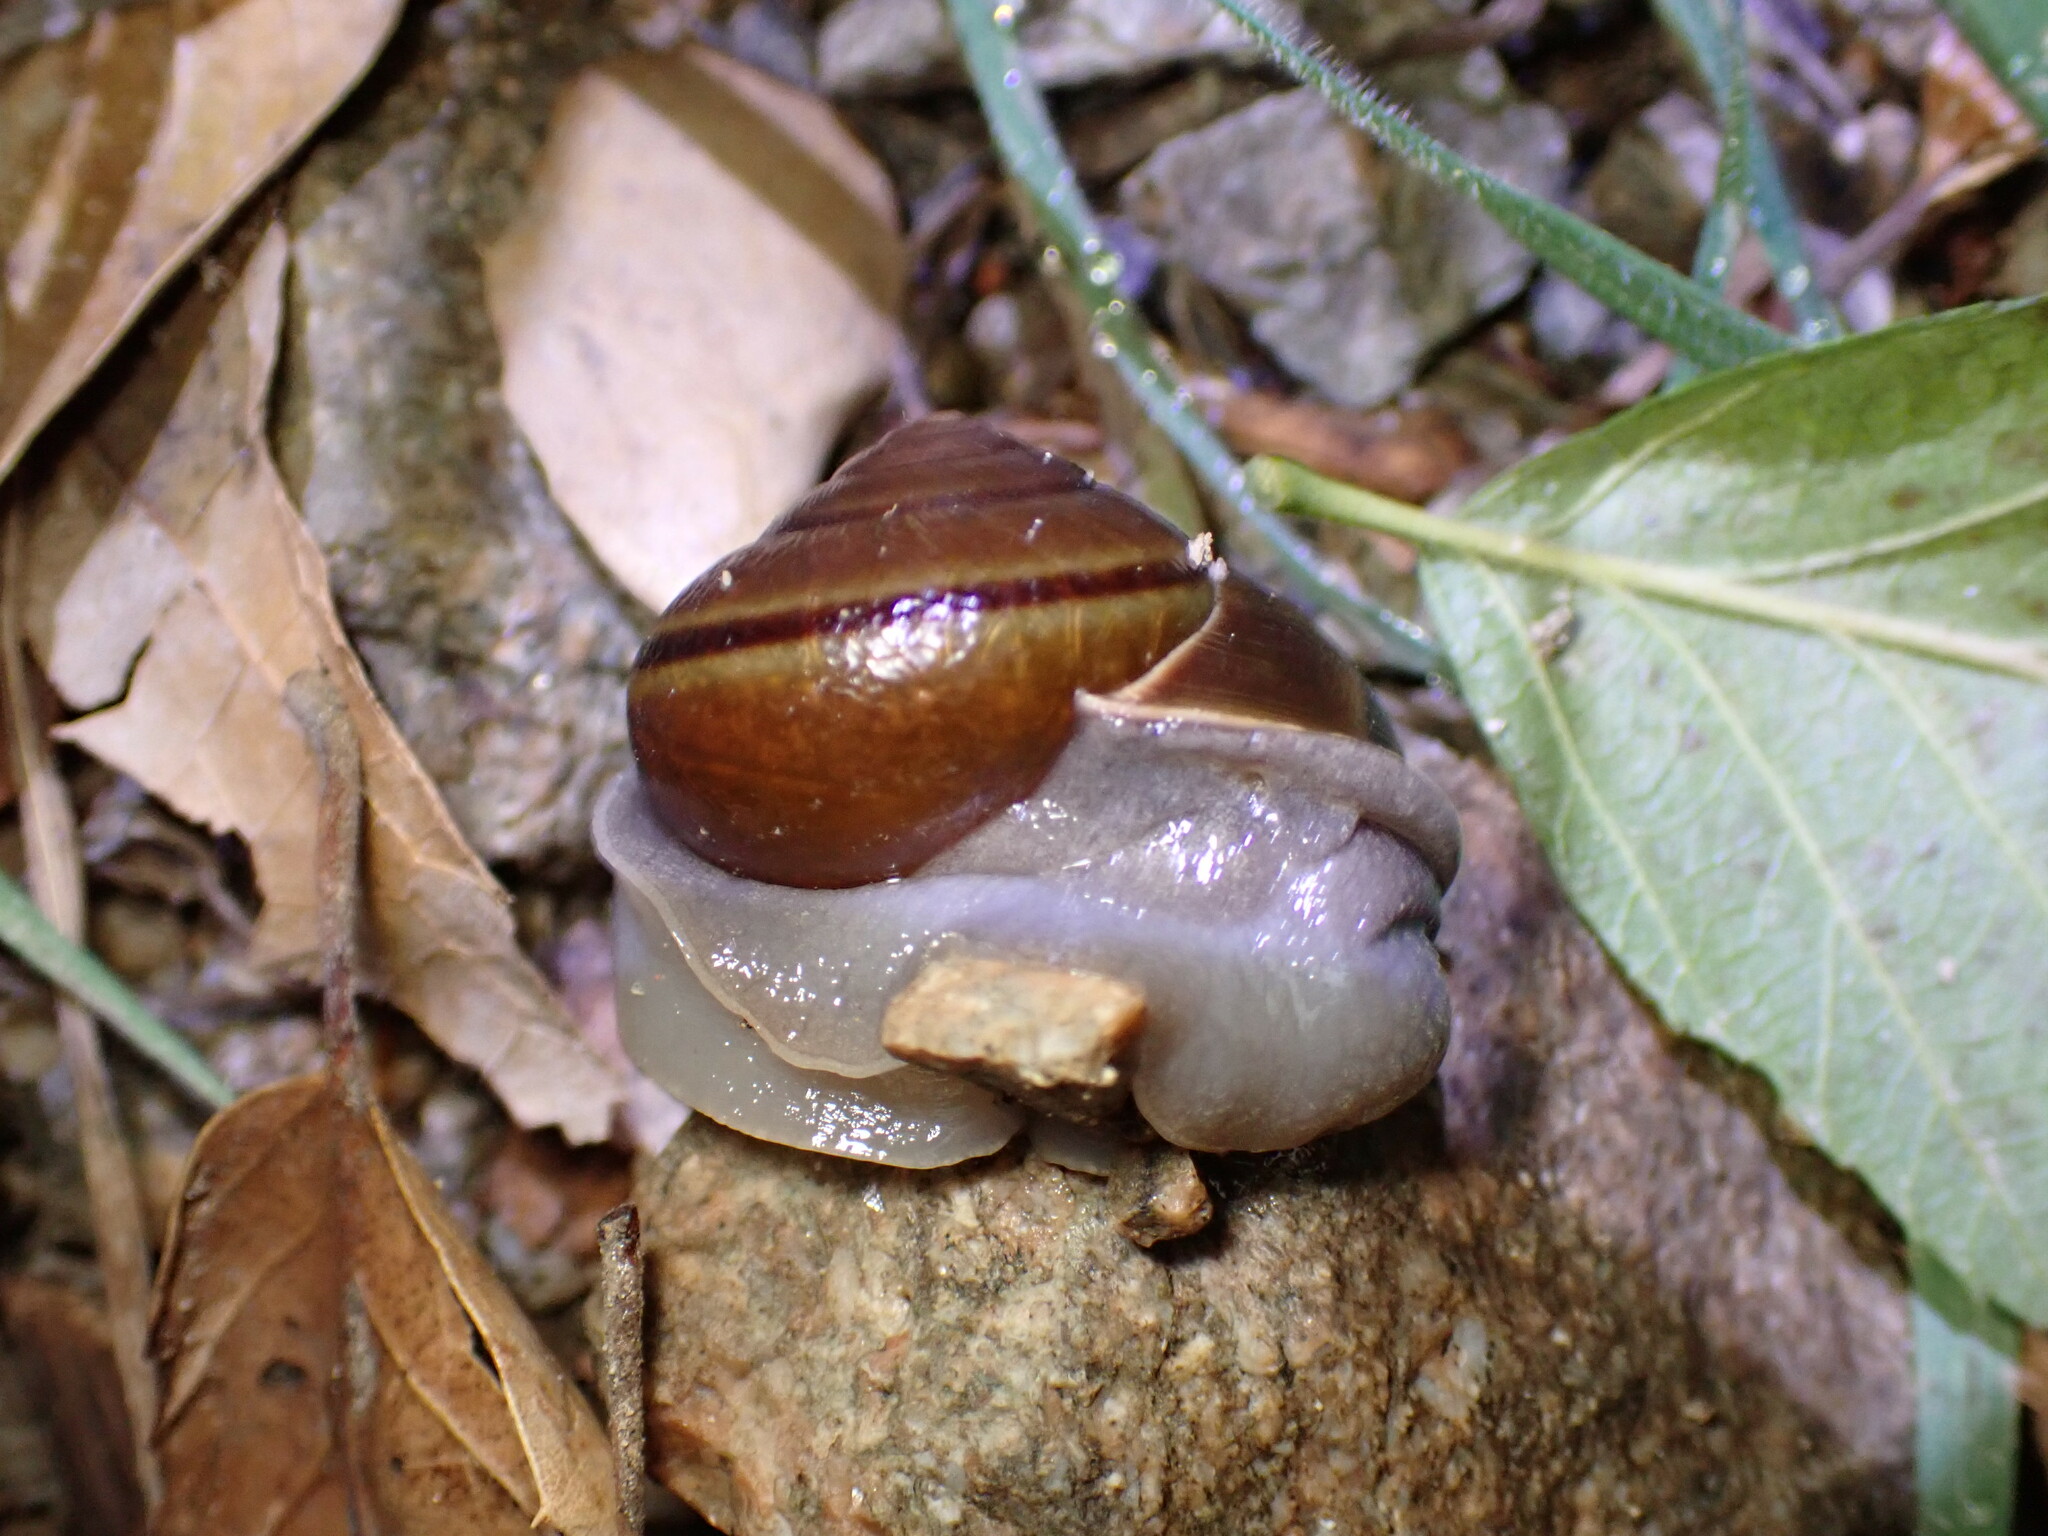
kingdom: Animalia
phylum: Mollusca
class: Gastropoda
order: Stylommatophora
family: Xanthonychidae
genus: Helminthoglypta
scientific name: Helminthoglypta tudiculata
